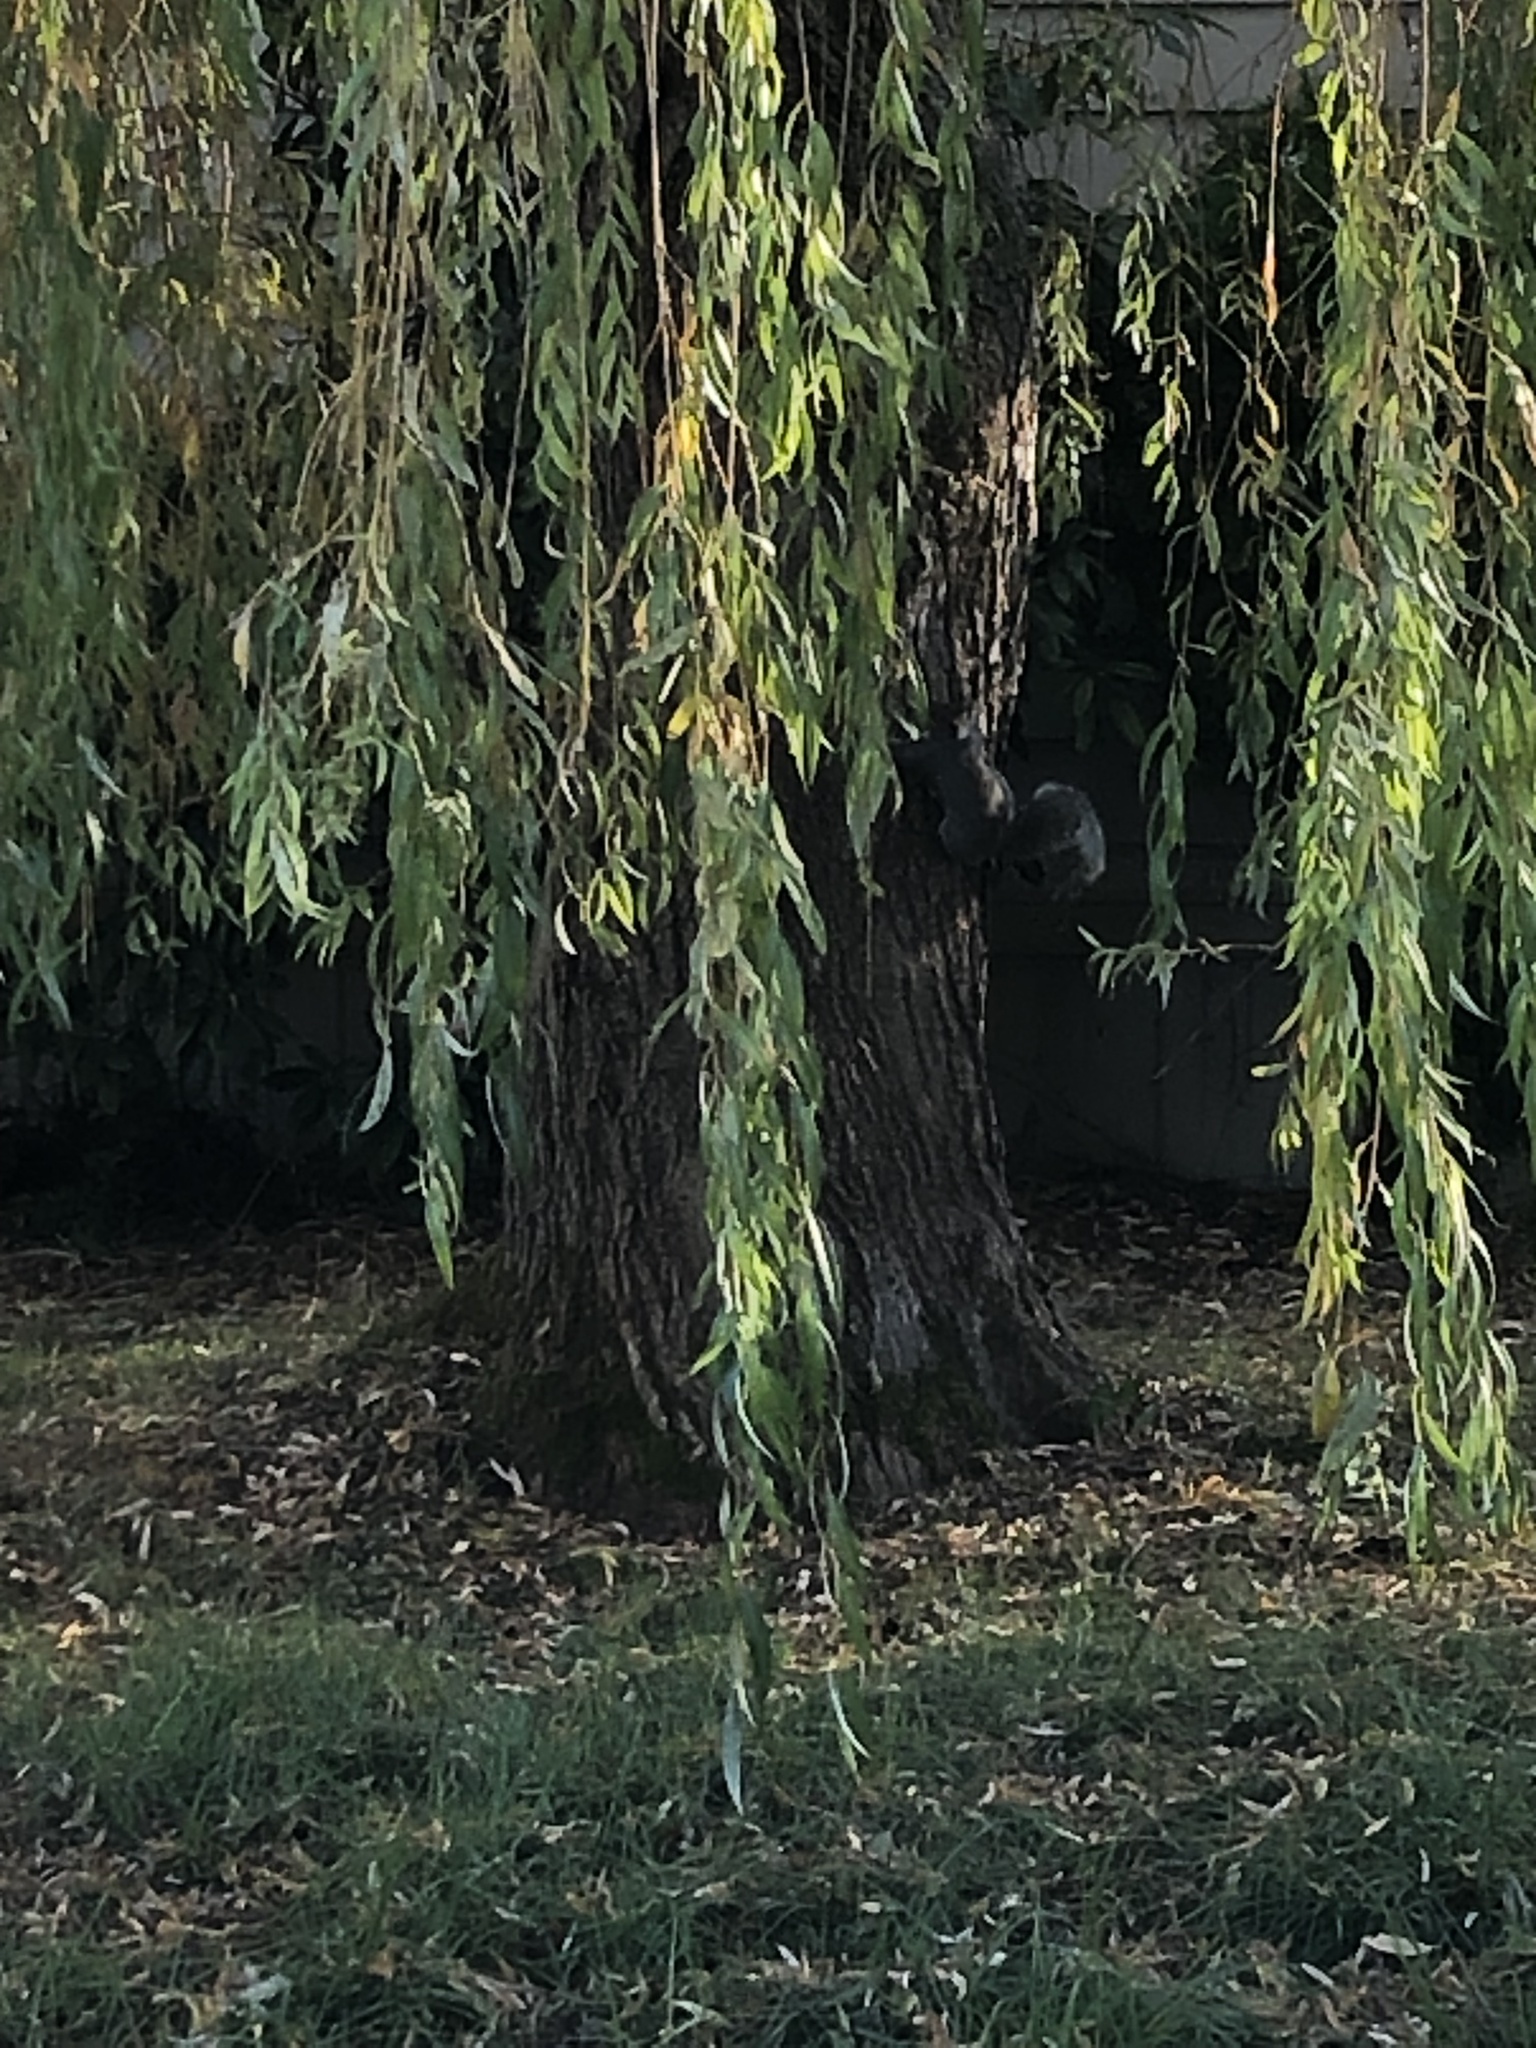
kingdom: Animalia
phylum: Chordata
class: Mammalia
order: Rodentia
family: Sciuridae
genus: Sciurus
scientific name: Sciurus carolinensis
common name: Eastern gray squirrel
